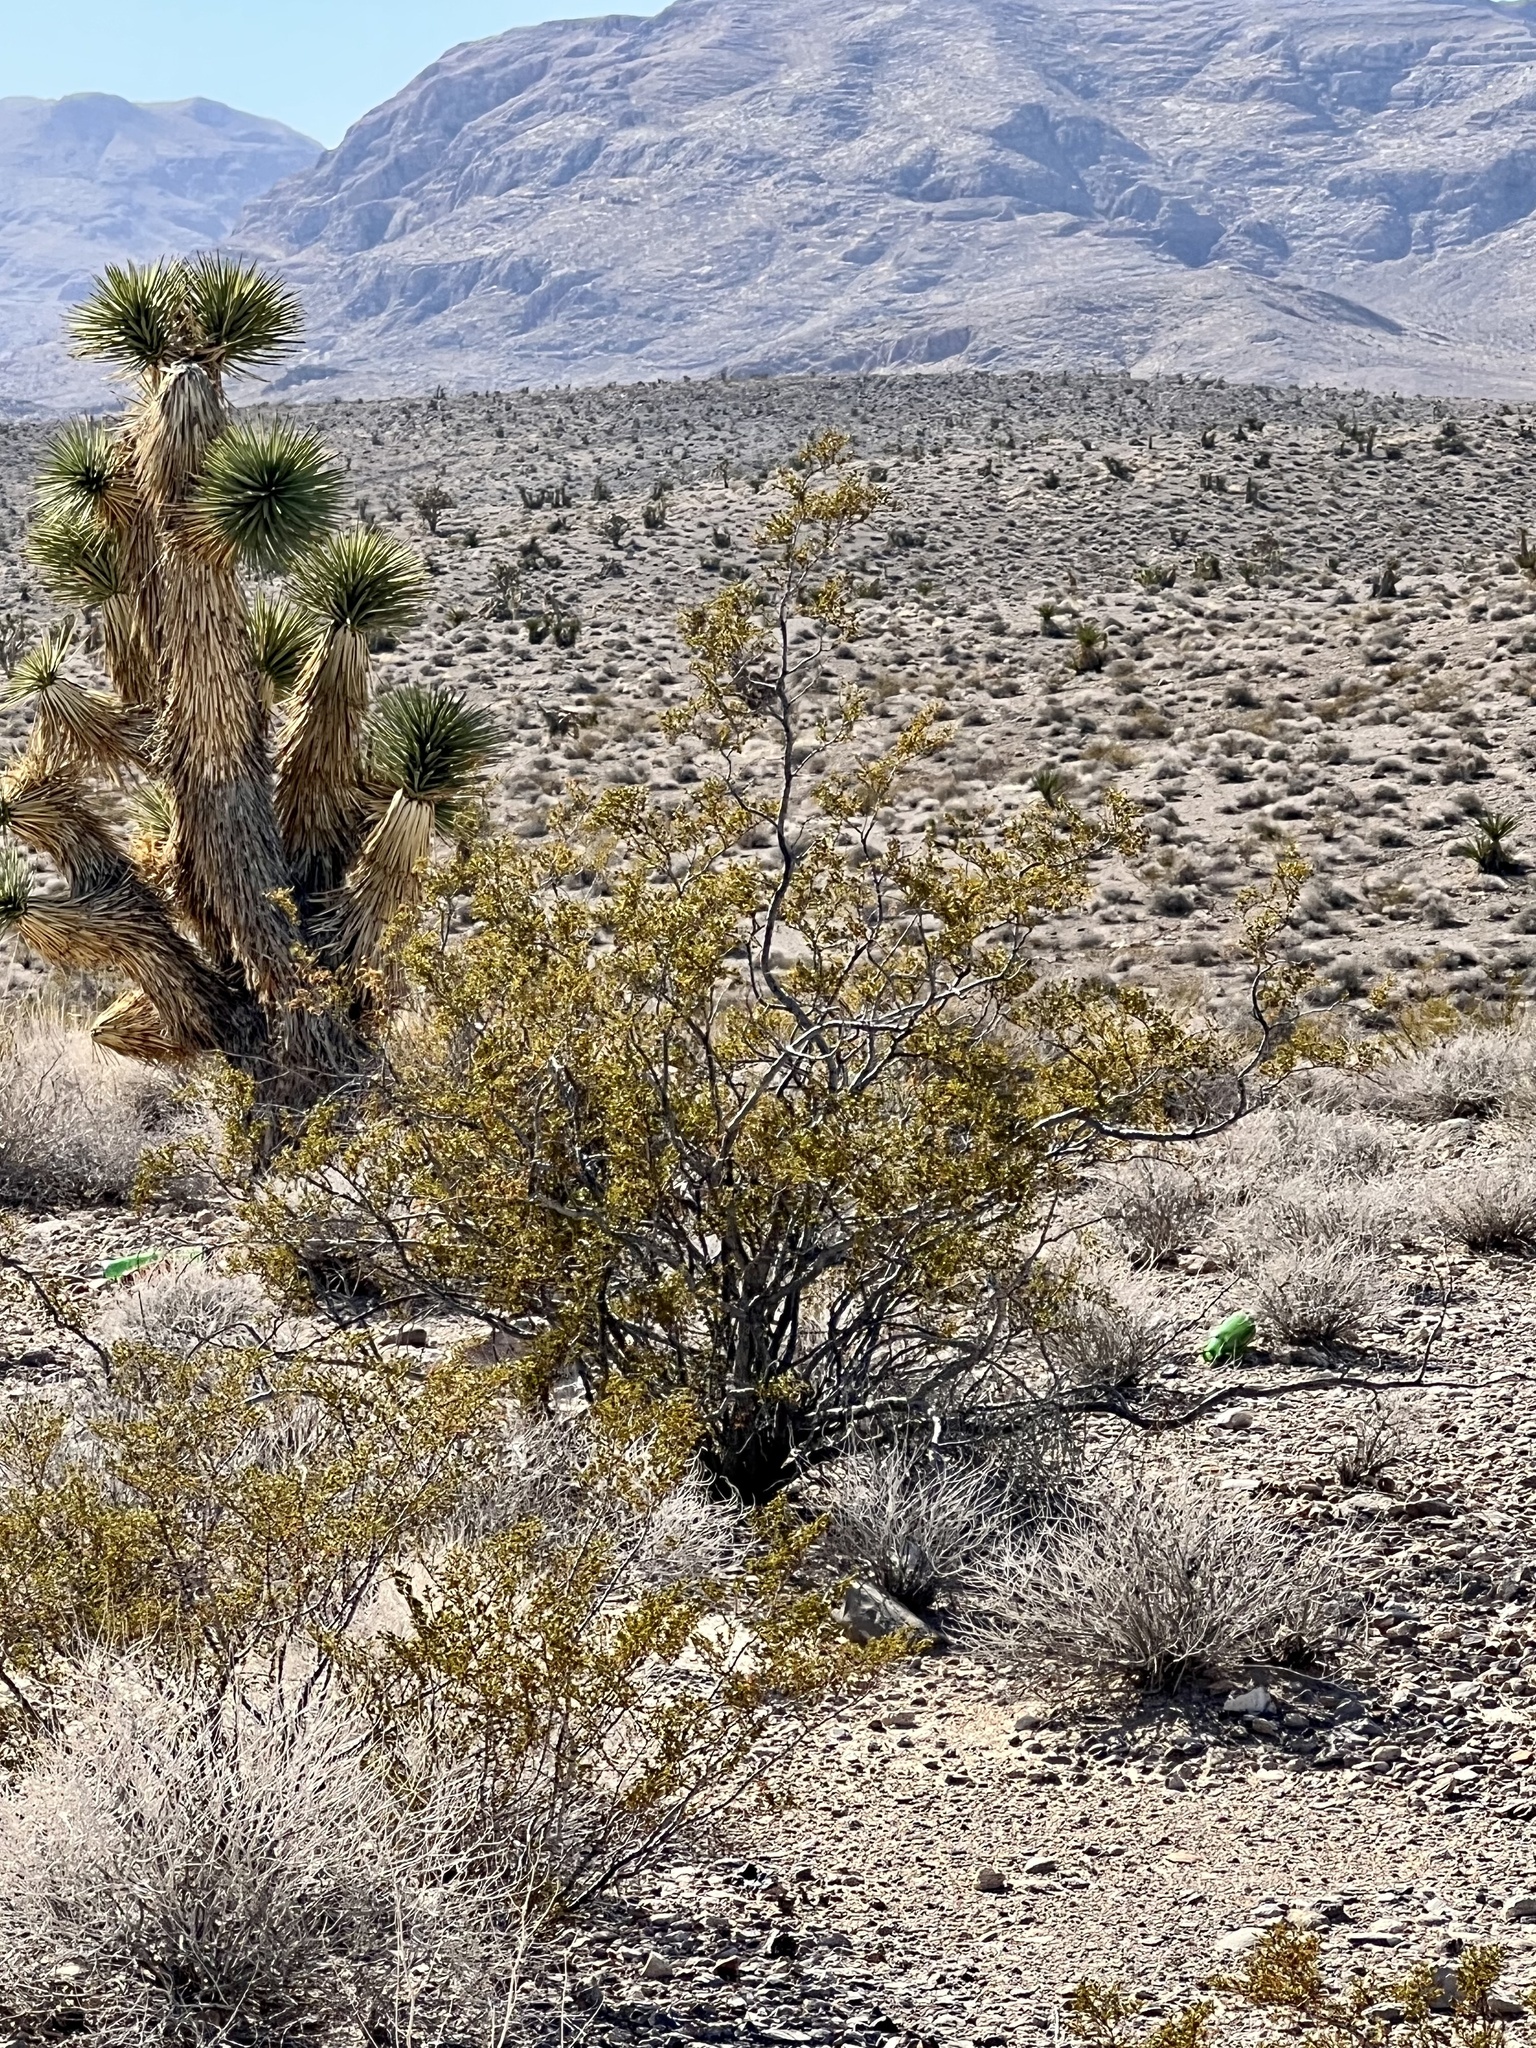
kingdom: Plantae
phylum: Tracheophyta
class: Magnoliopsida
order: Zygophyllales
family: Zygophyllaceae
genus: Larrea
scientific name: Larrea tridentata
